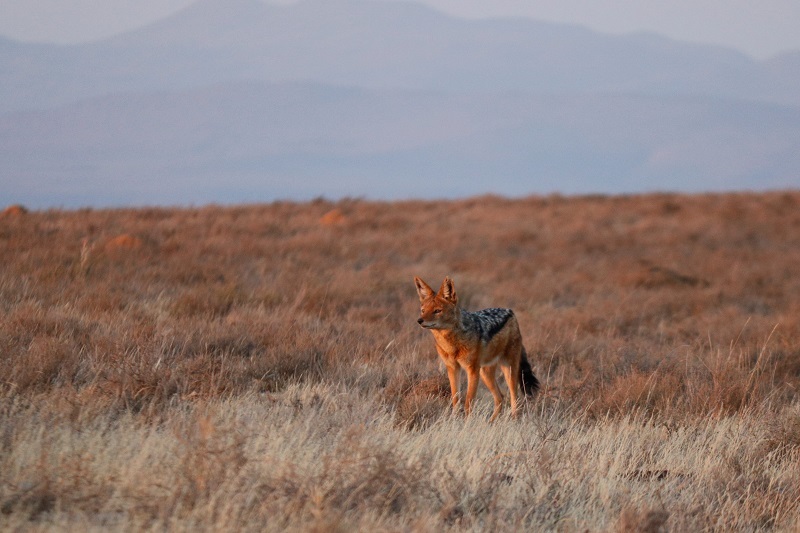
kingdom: Animalia
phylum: Chordata
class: Mammalia
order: Carnivora
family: Canidae
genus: Lupulella
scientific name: Lupulella
